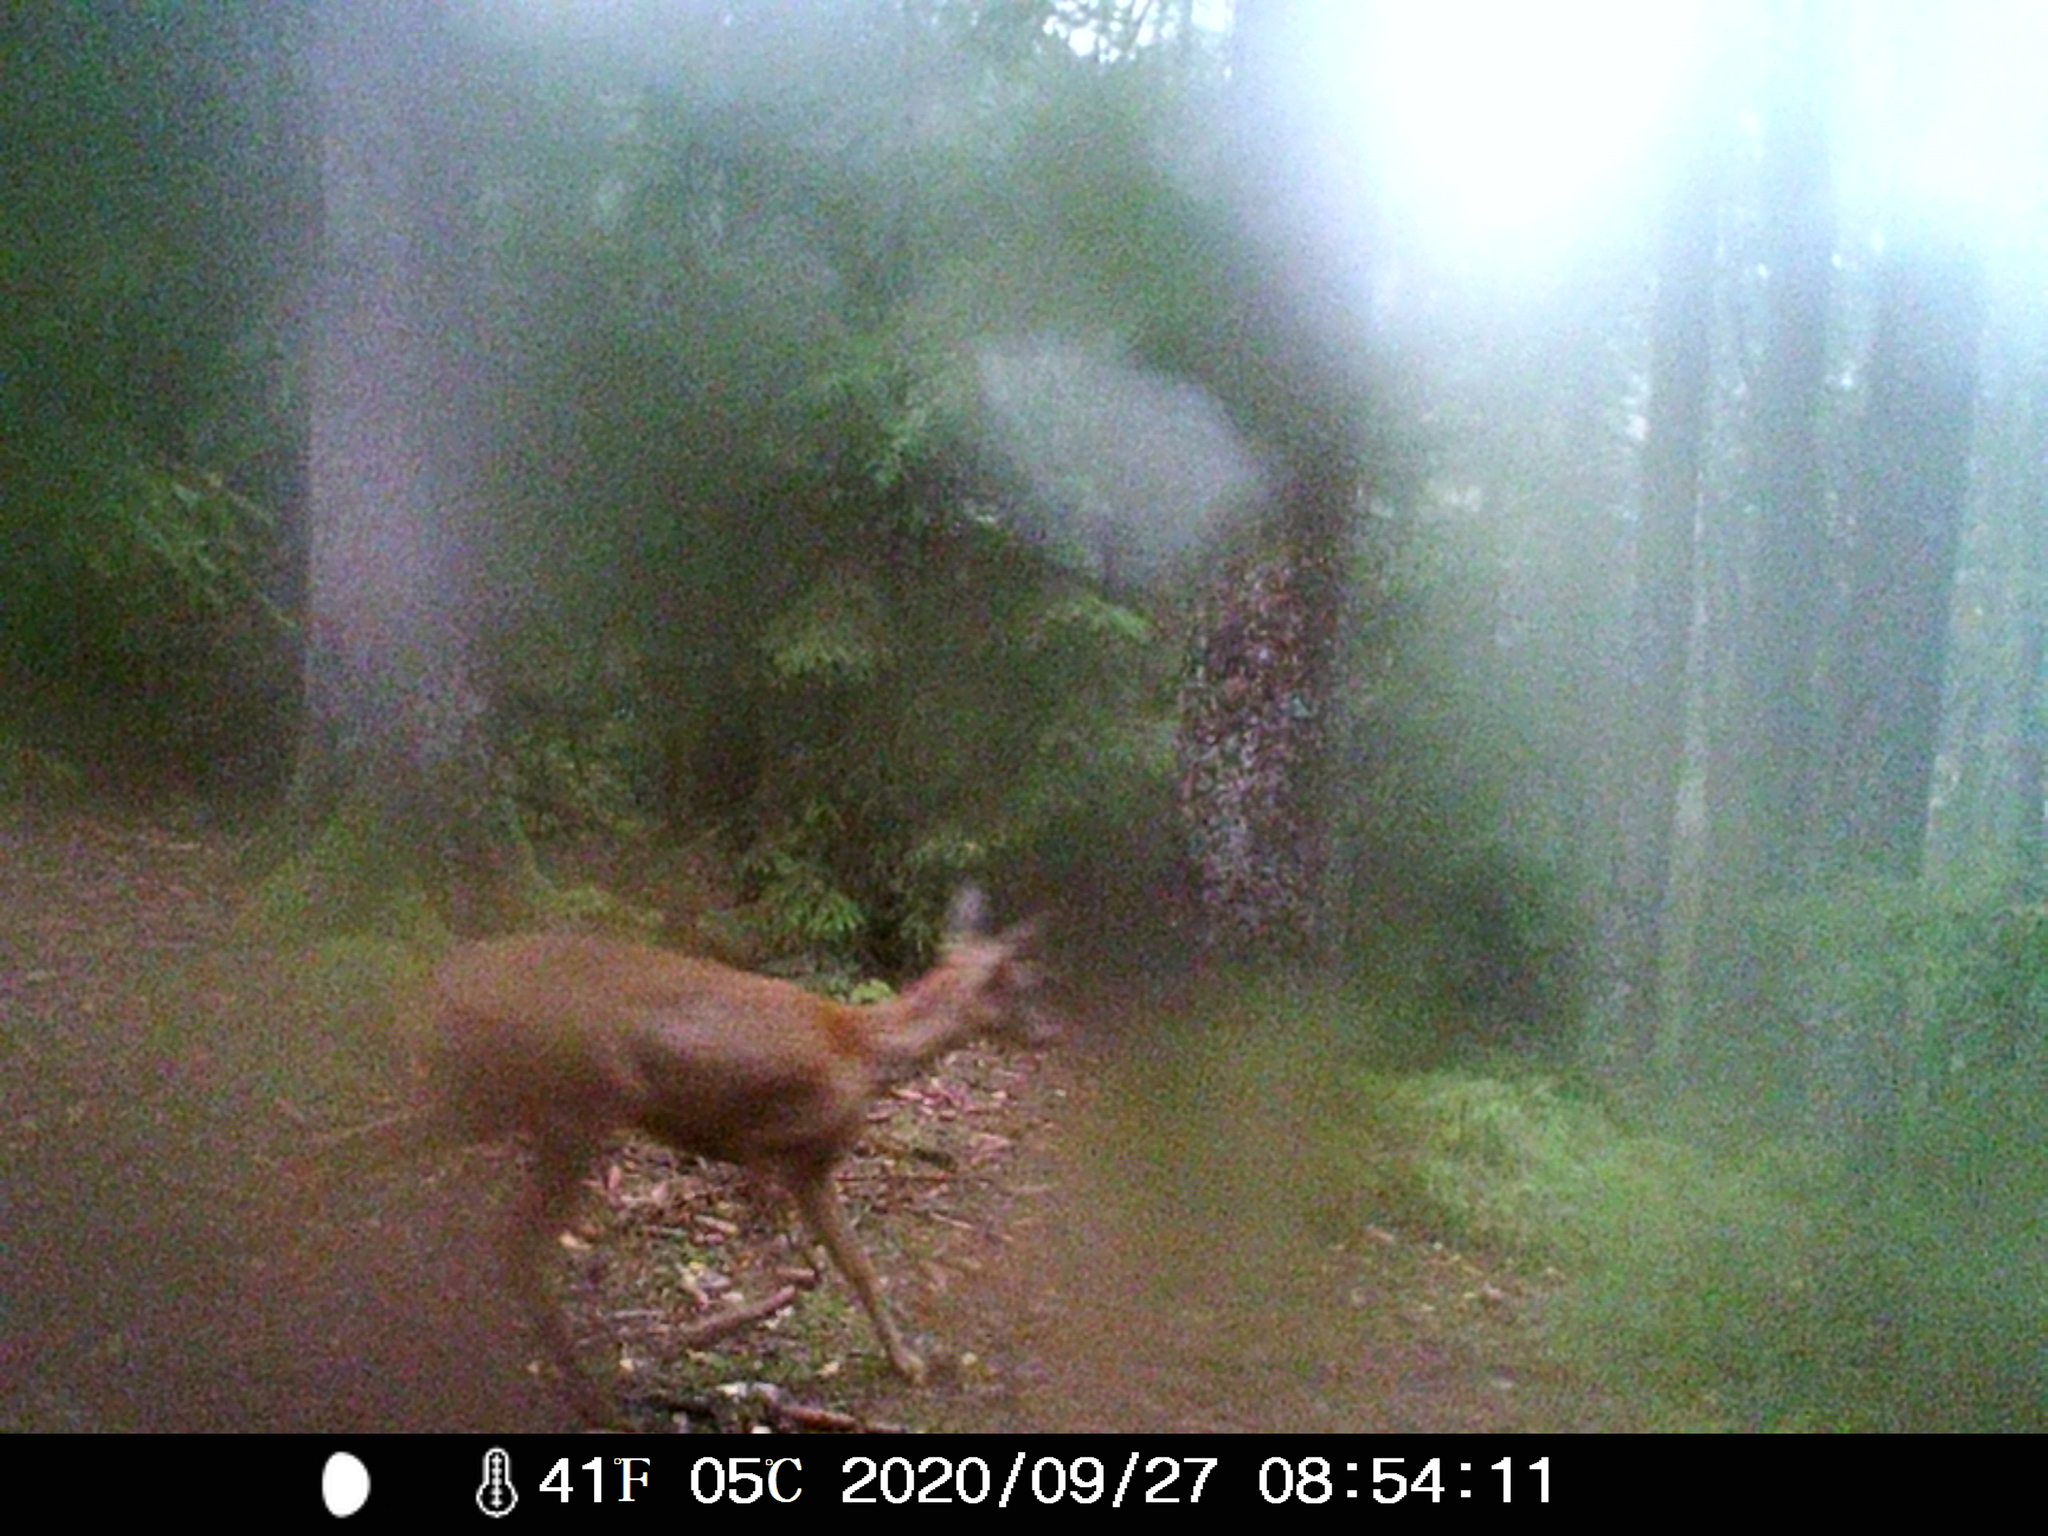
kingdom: Animalia
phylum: Chordata
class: Mammalia
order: Artiodactyla
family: Cervidae
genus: Capreolus
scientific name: Capreolus capreolus
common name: Western roe deer
